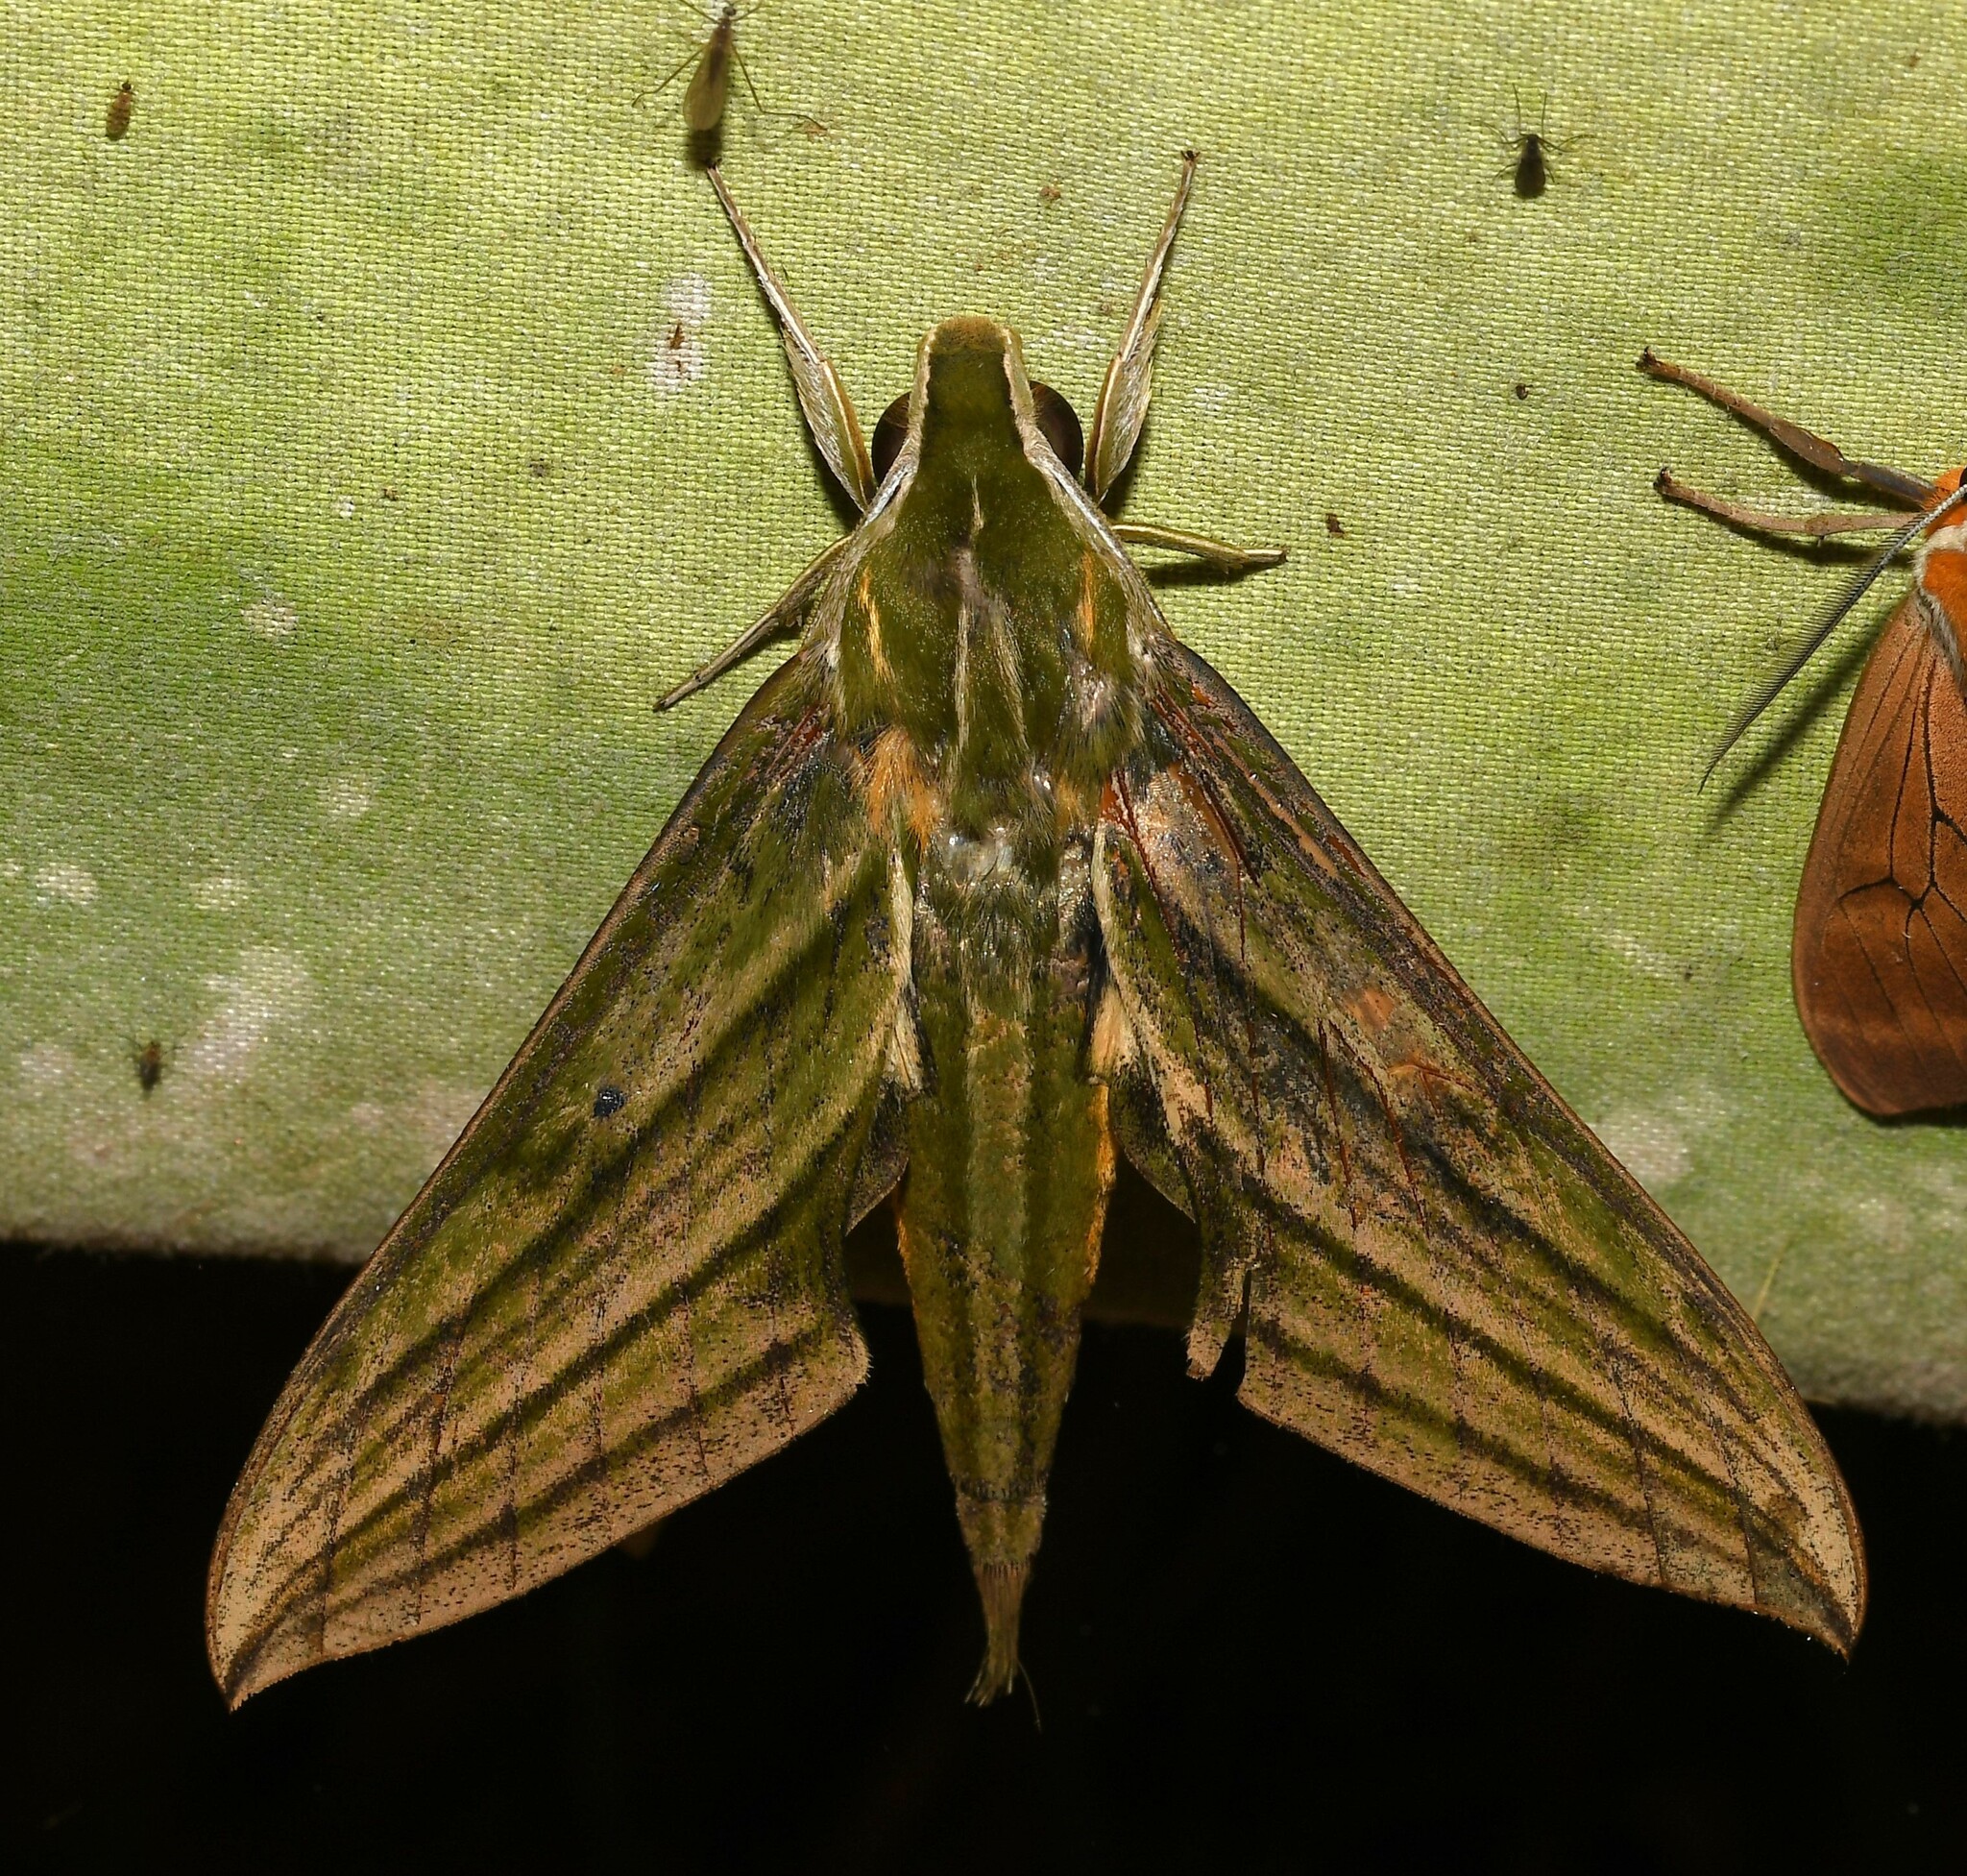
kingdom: Animalia
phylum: Arthropoda
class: Insecta
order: Lepidoptera
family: Sphingidae
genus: Xylophanes
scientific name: Xylophanes mineti
